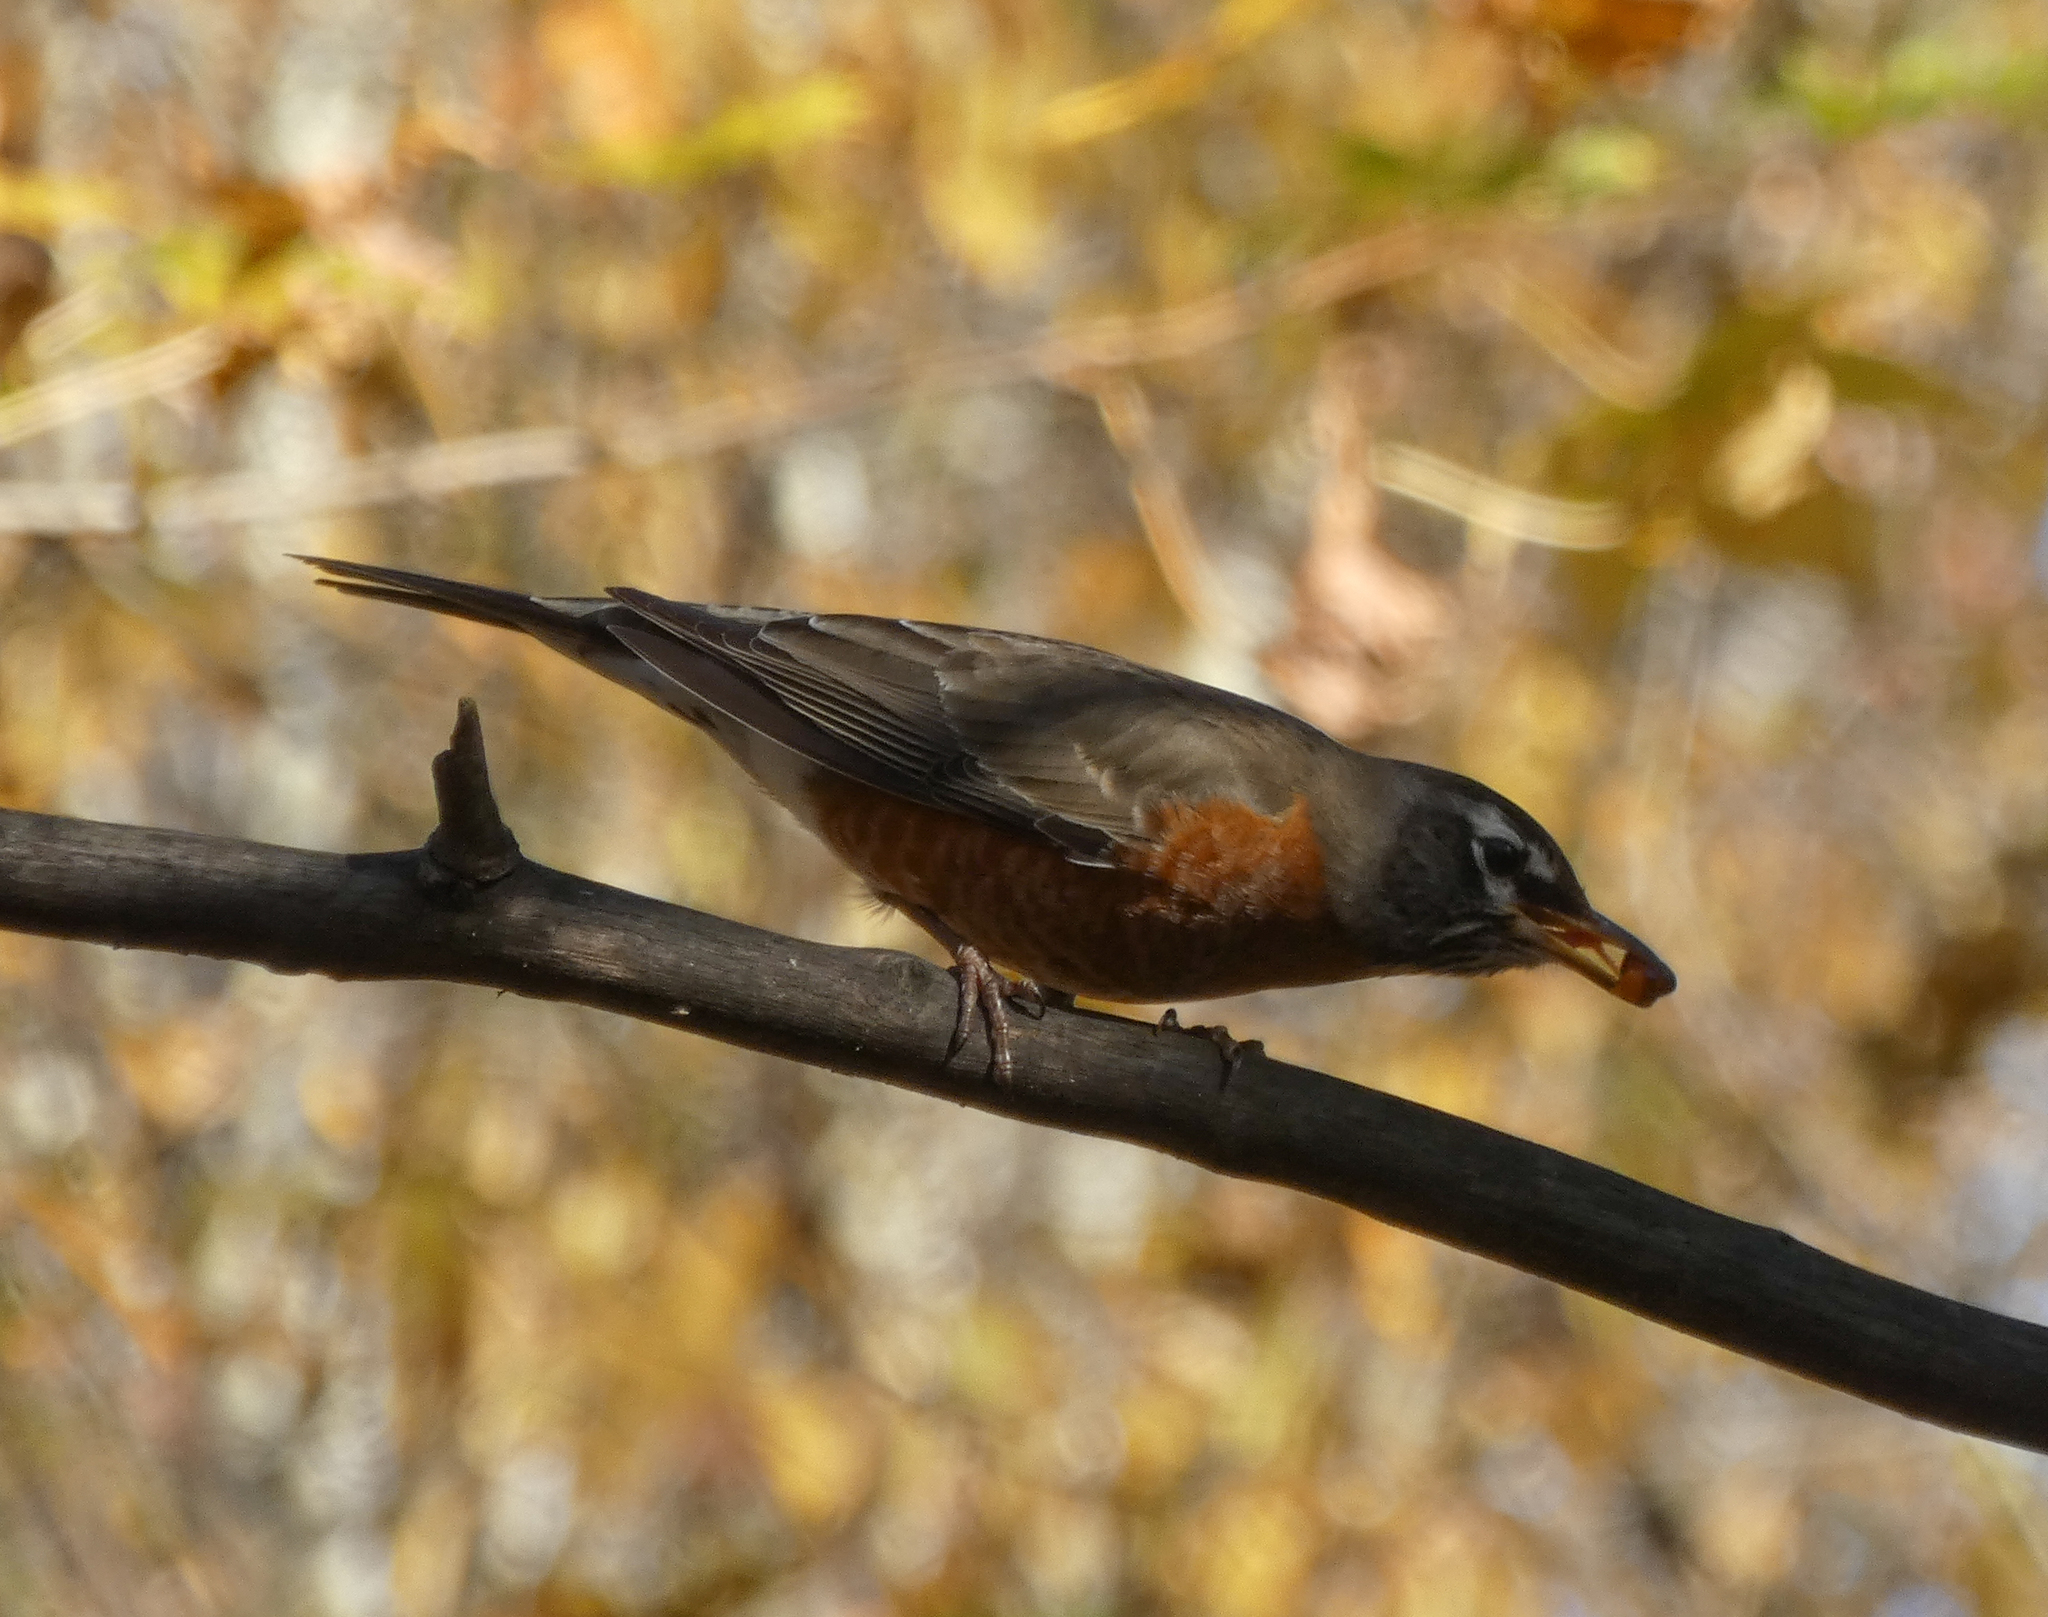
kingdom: Animalia
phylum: Chordata
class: Aves
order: Passeriformes
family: Turdidae
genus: Turdus
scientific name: Turdus migratorius
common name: American robin
